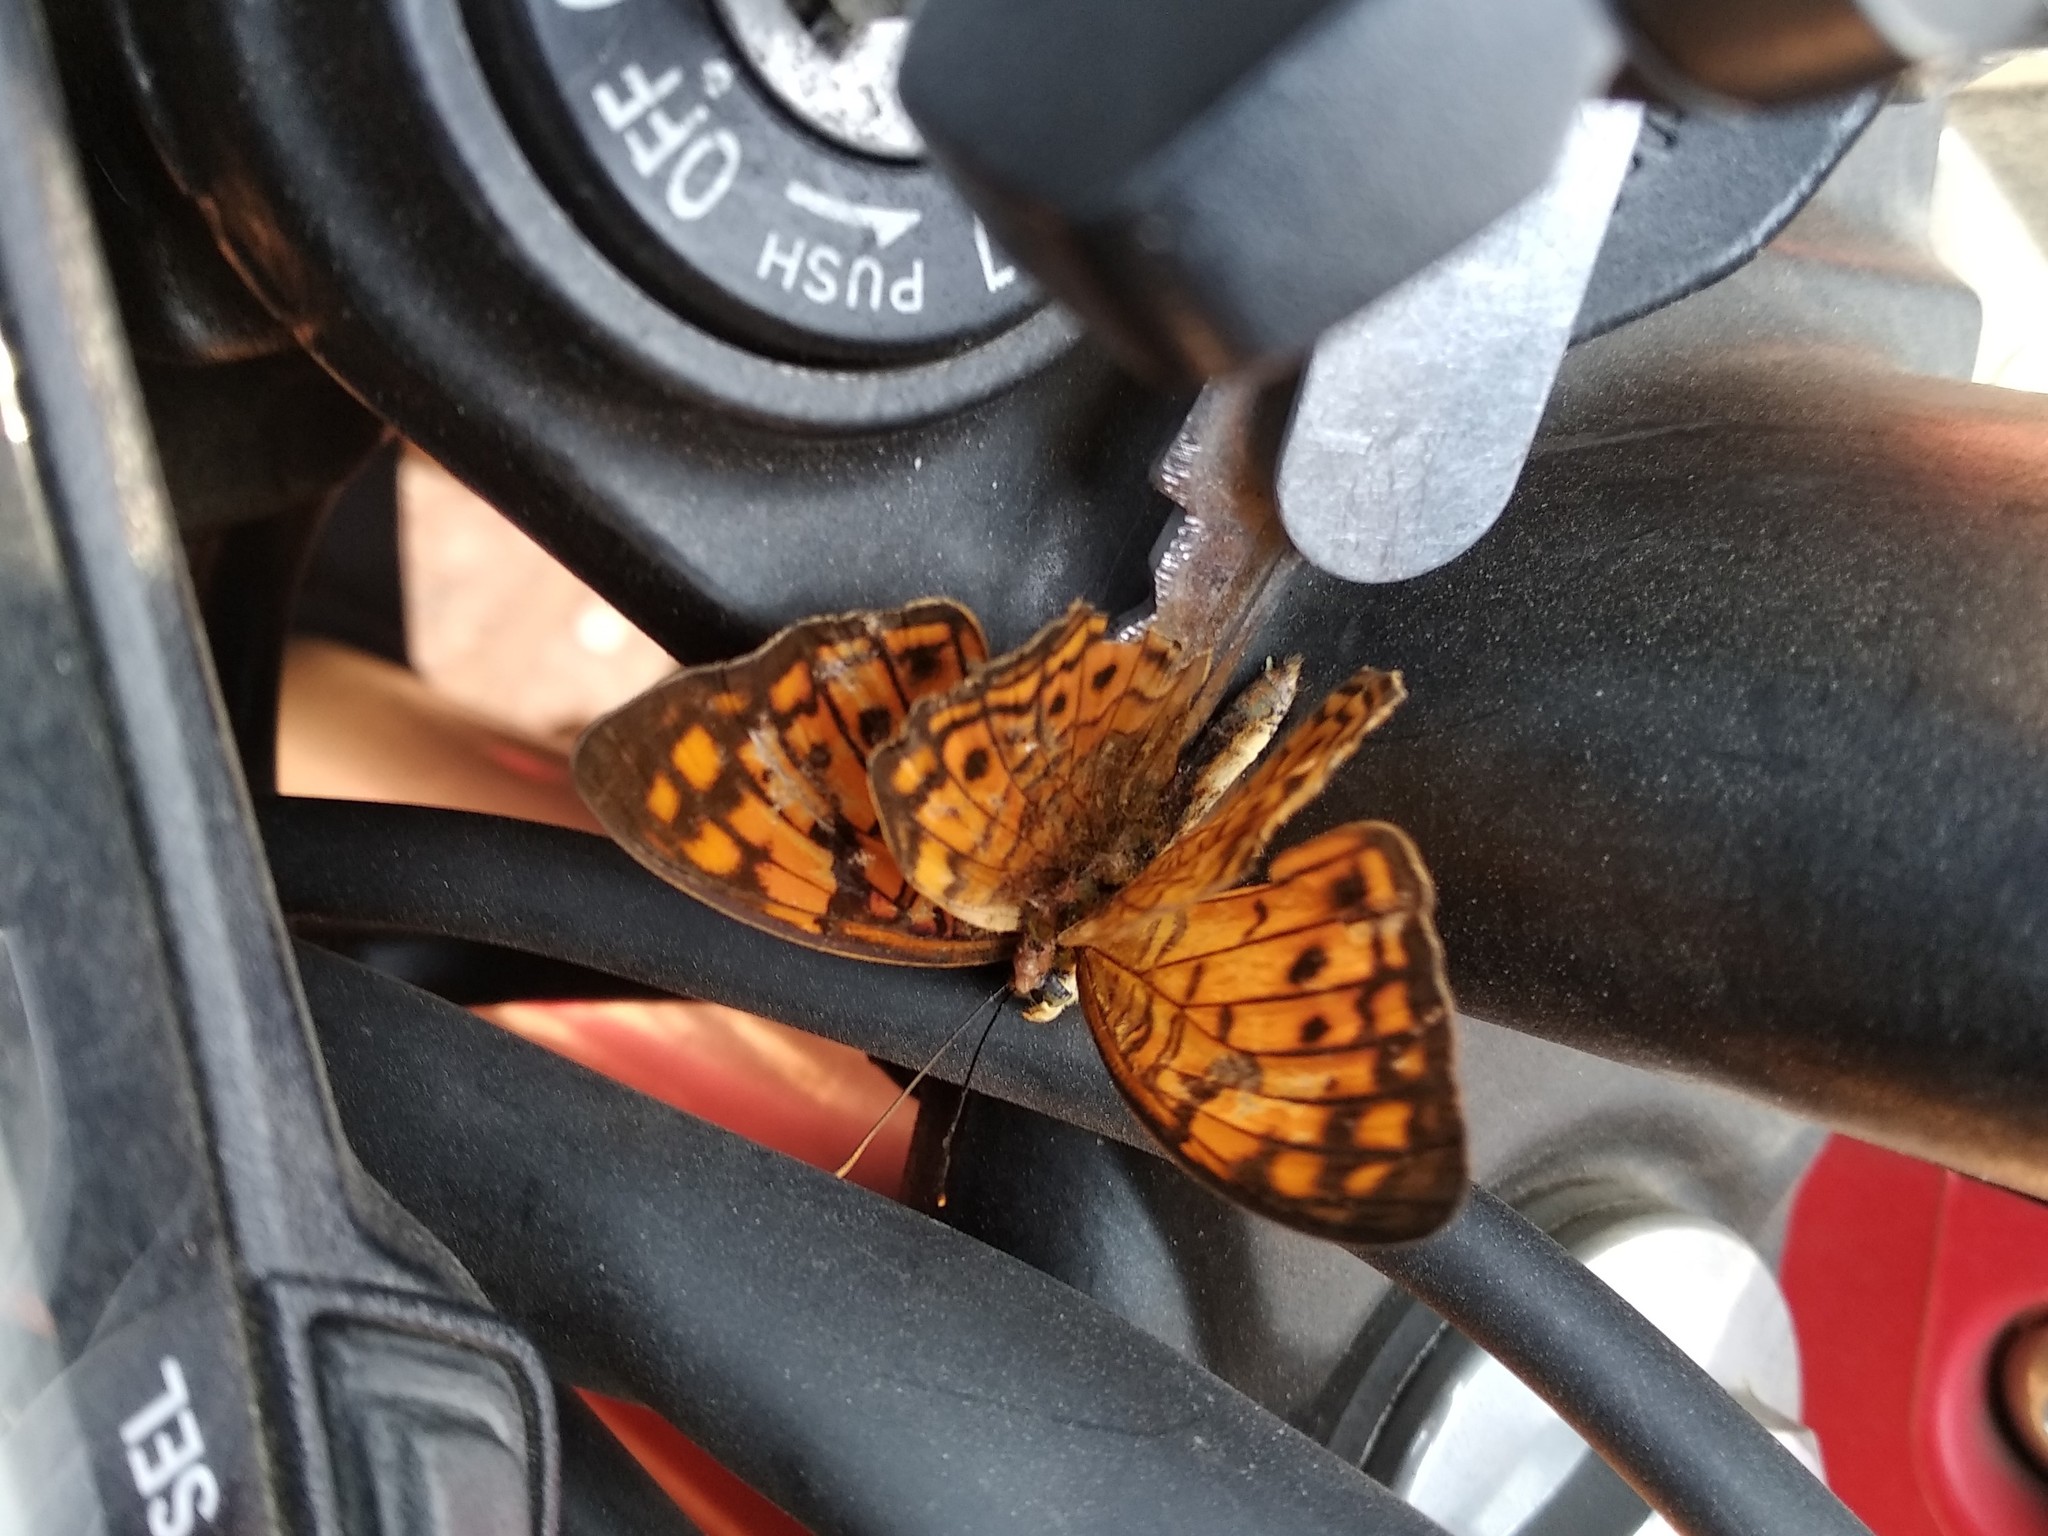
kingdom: Animalia
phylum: Arthropoda
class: Insecta
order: Lepidoptera
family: Nymphalidae
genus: Phalanta
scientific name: Phalanta alcippe
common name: Small leopard
